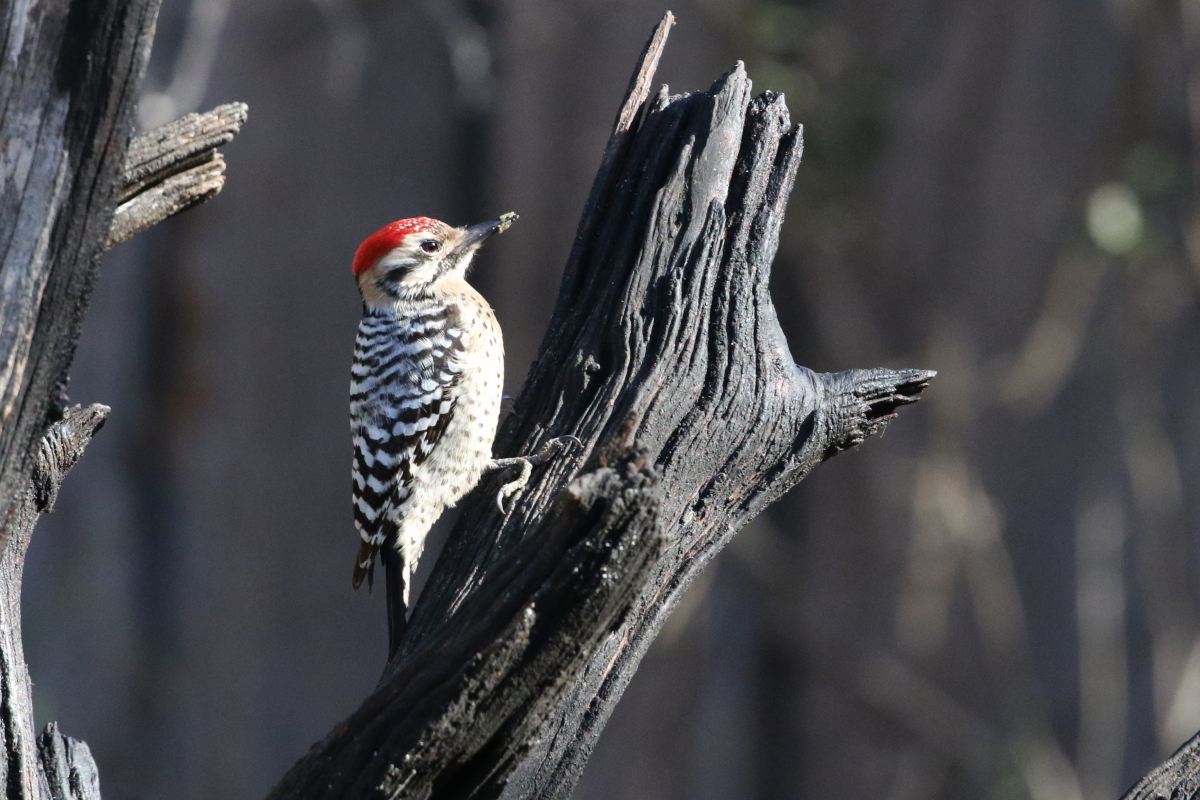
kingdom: Animalia
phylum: Chordata
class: Aves
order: Piciformes
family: Picidae
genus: Dryobates
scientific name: Dryobates scalaris
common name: Ladder-backed woodpecker
